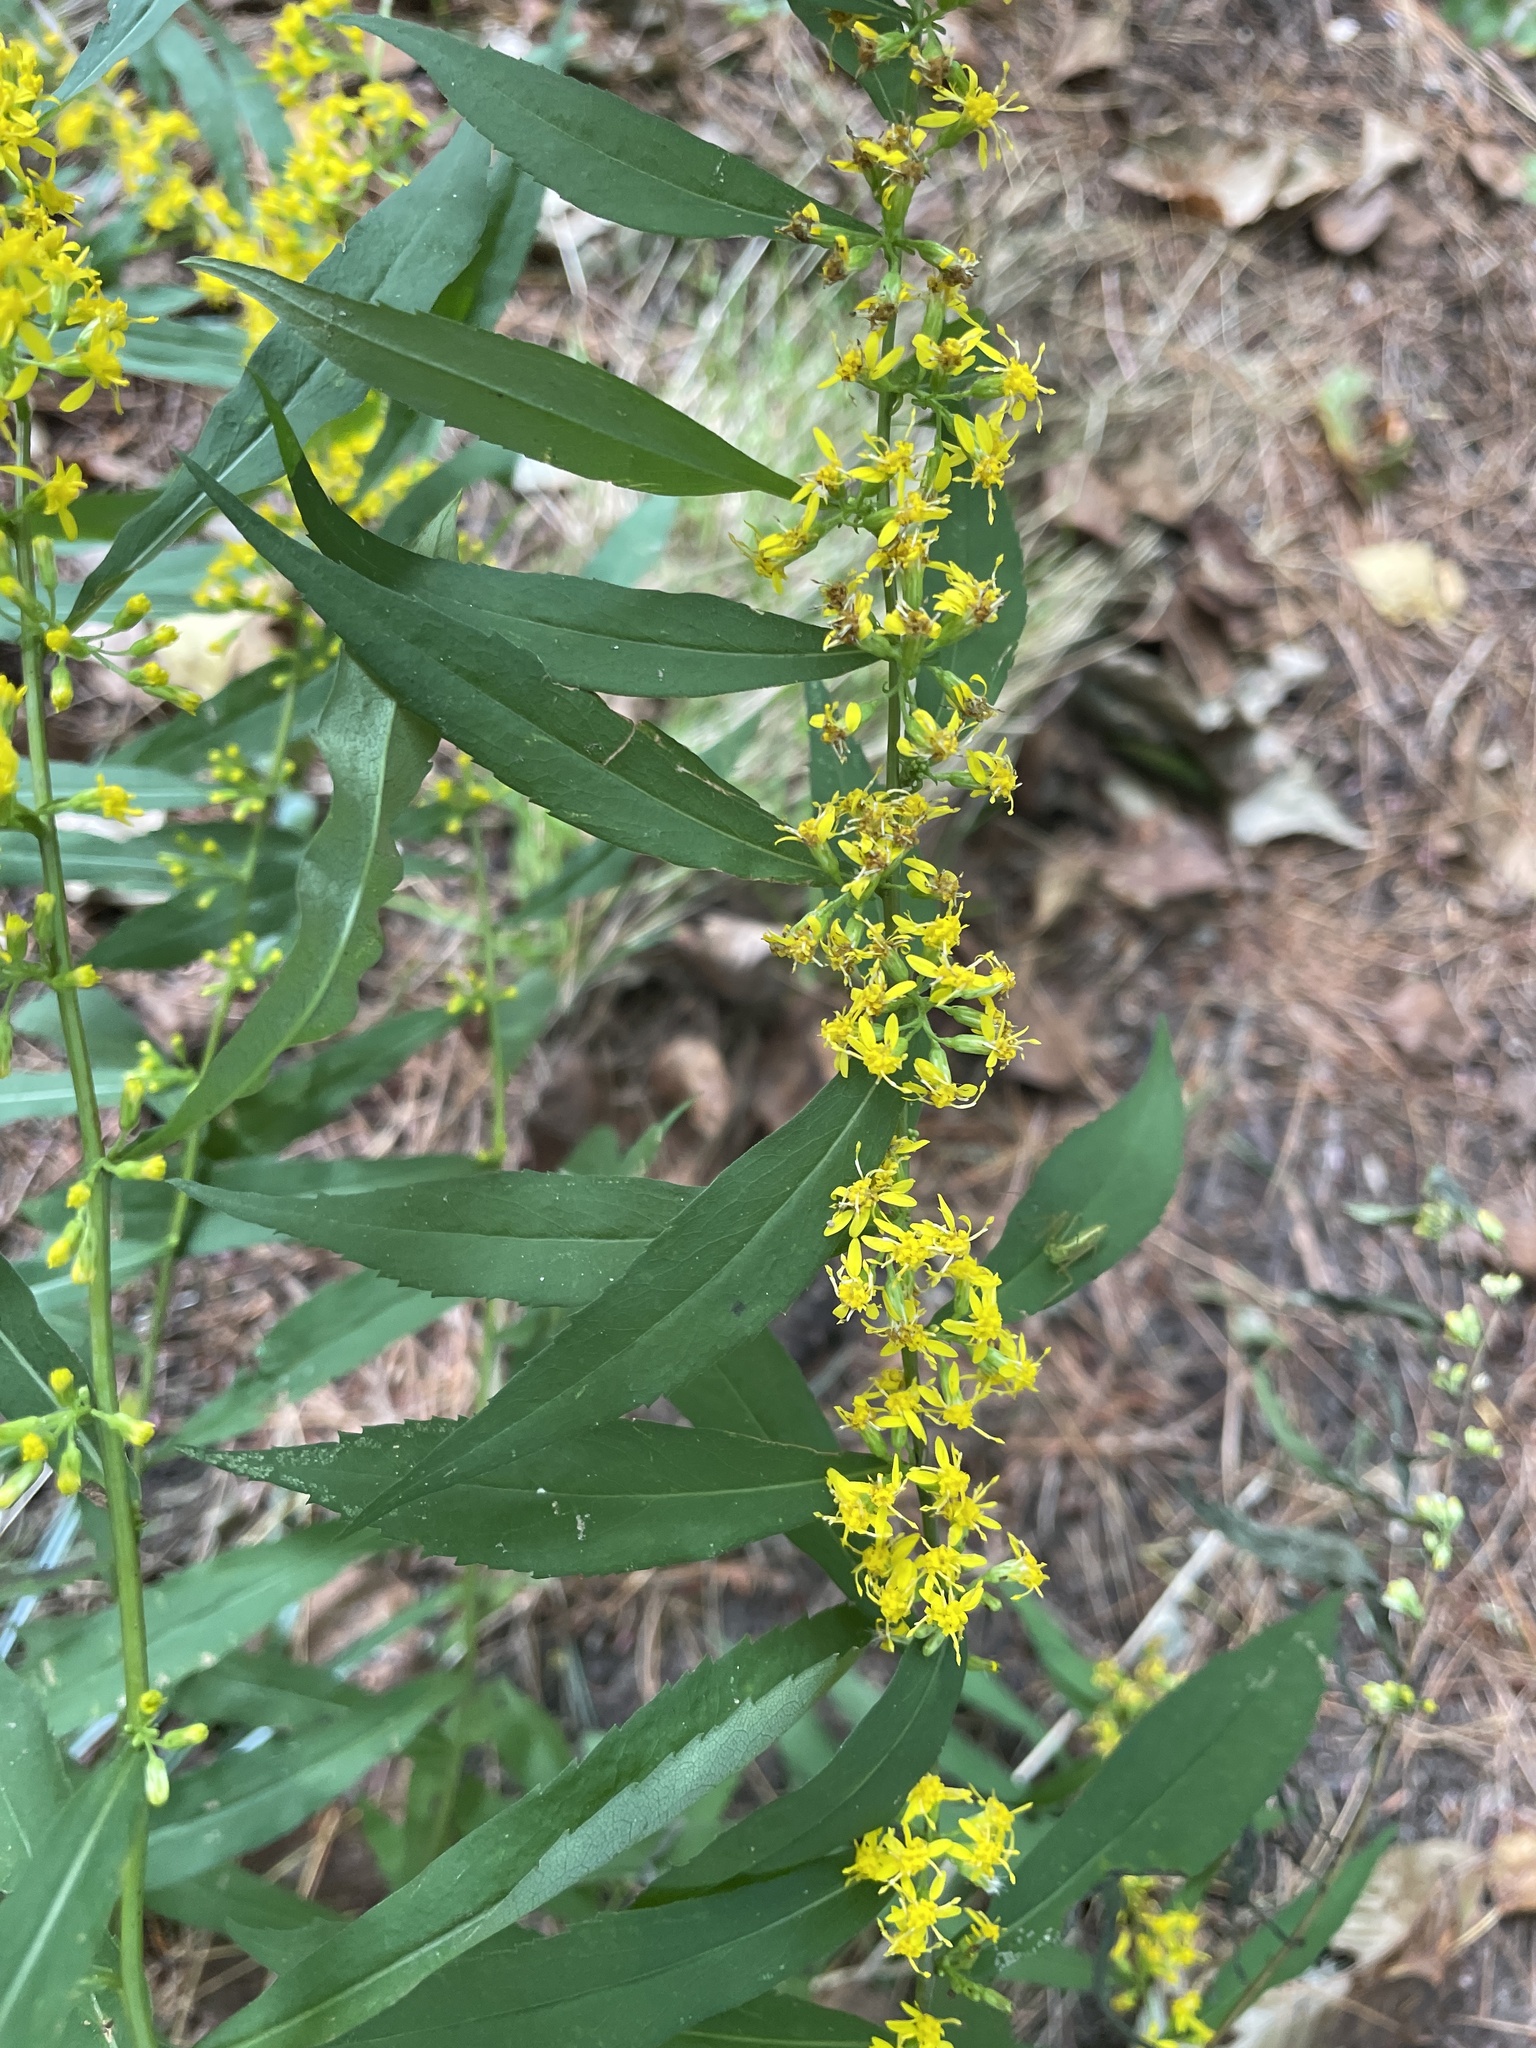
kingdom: Plantae
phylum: Tracheophyta
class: Magnoliopsida
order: Asterales
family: Asteraceae
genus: Solidago
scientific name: Solidago caesia
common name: Woodland goldenrod
